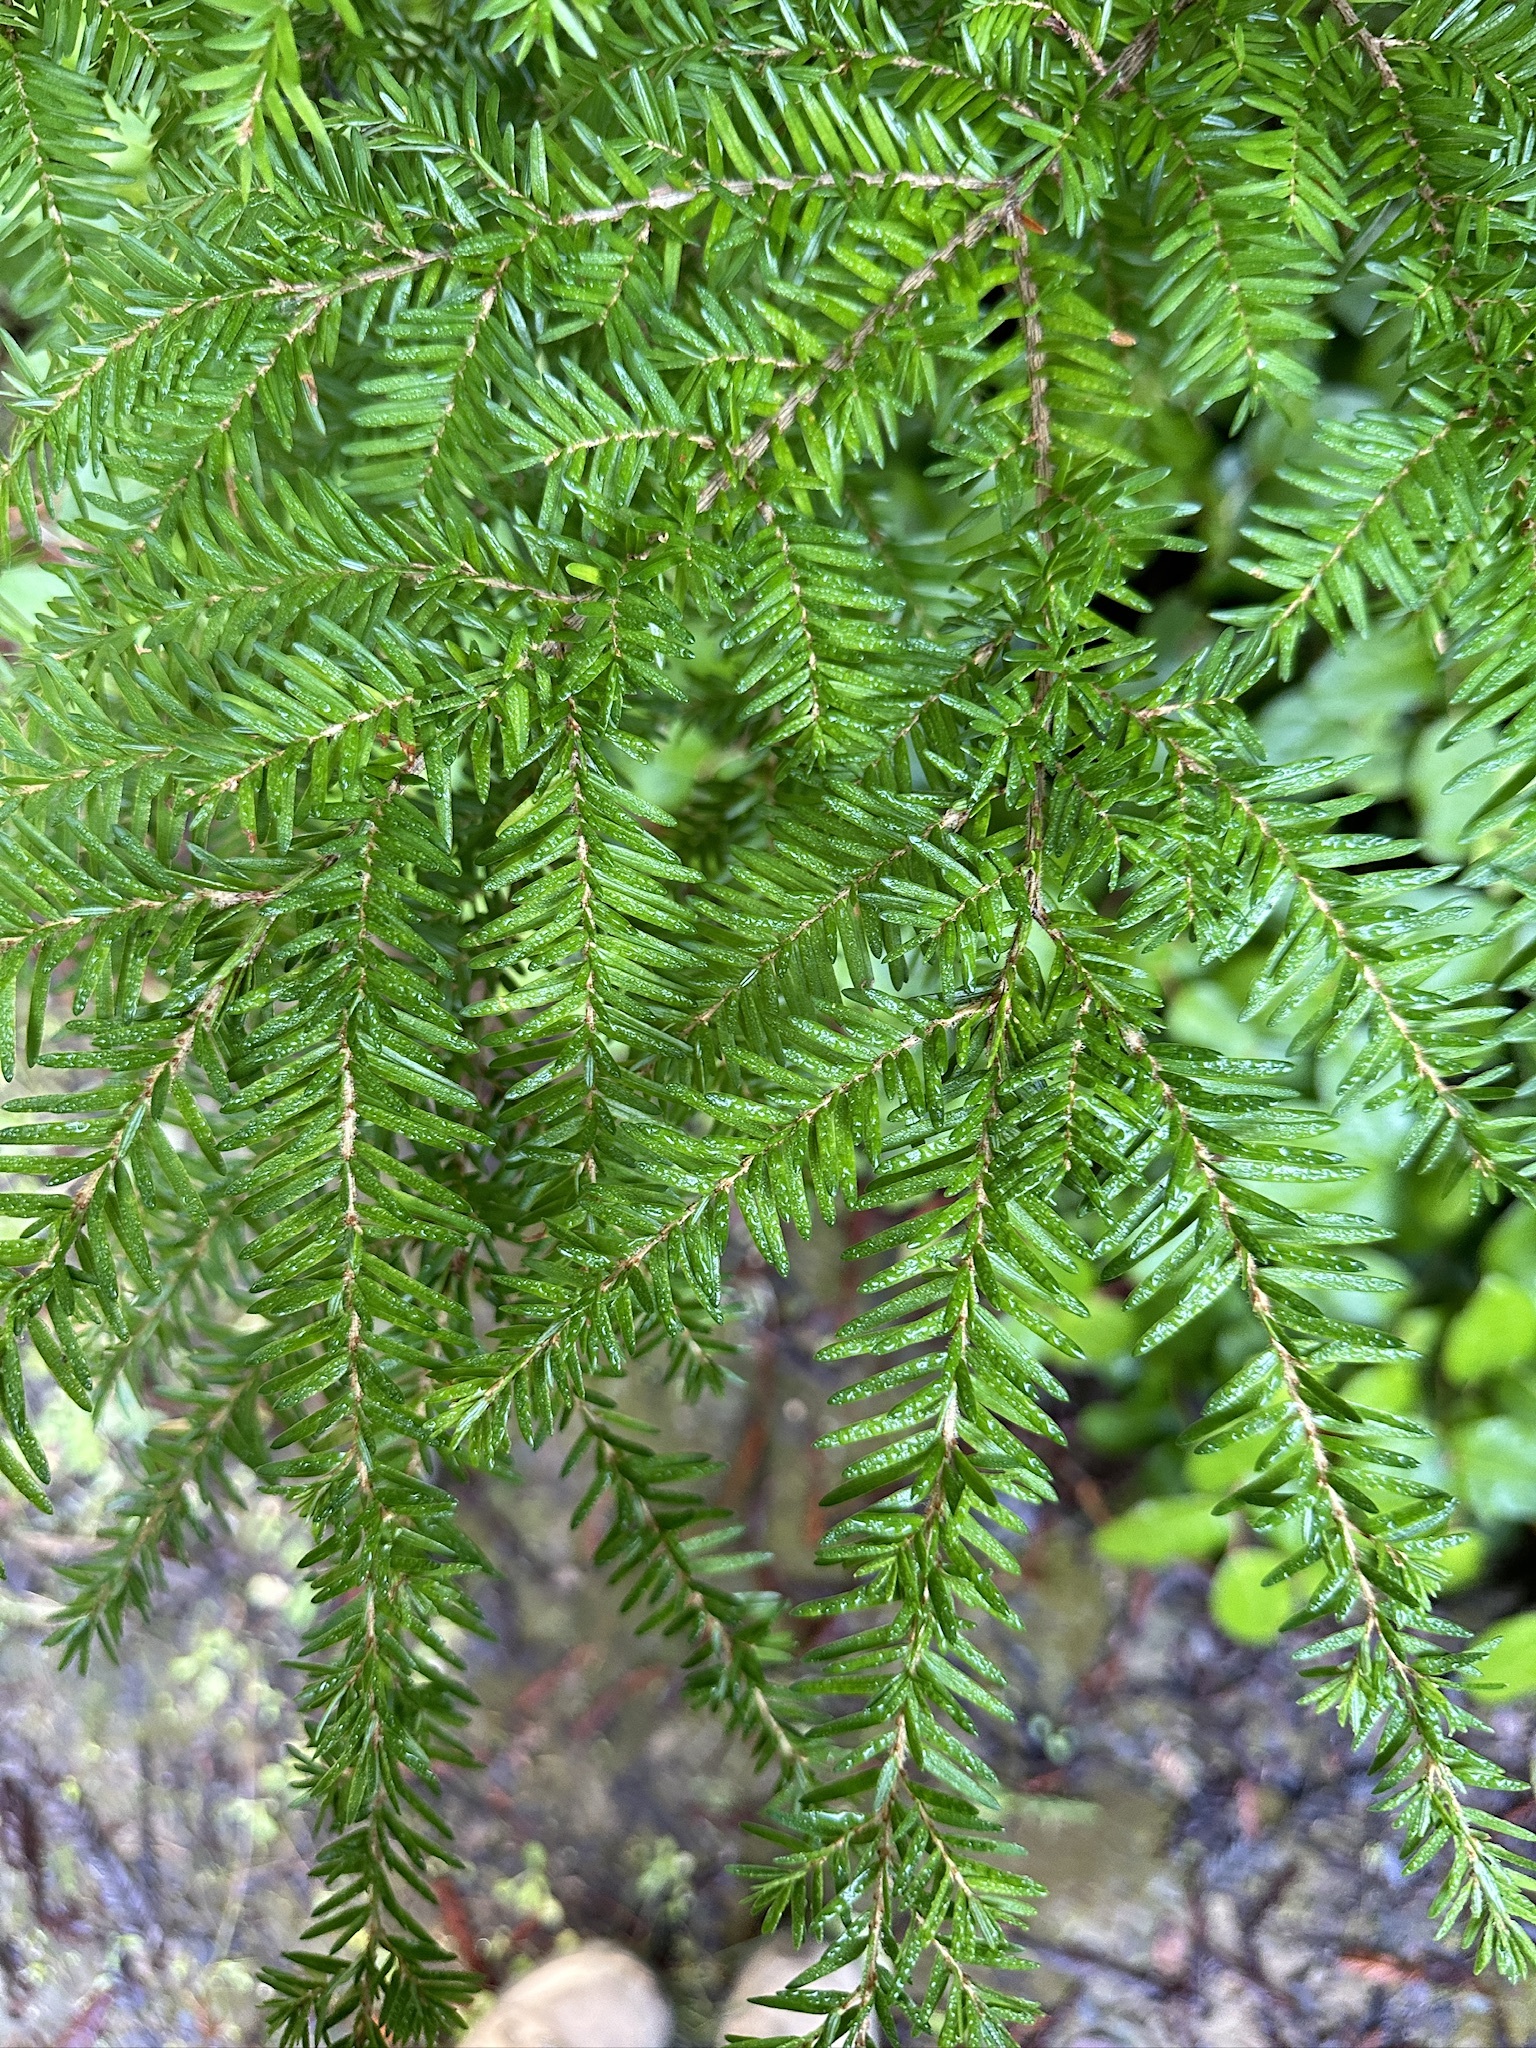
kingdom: Plantae
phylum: Tracheophyta
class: Pinopsida
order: Pinales
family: Pinaceae
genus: Tsuga
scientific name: Tsuga heterophylla
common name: Western hemlock
